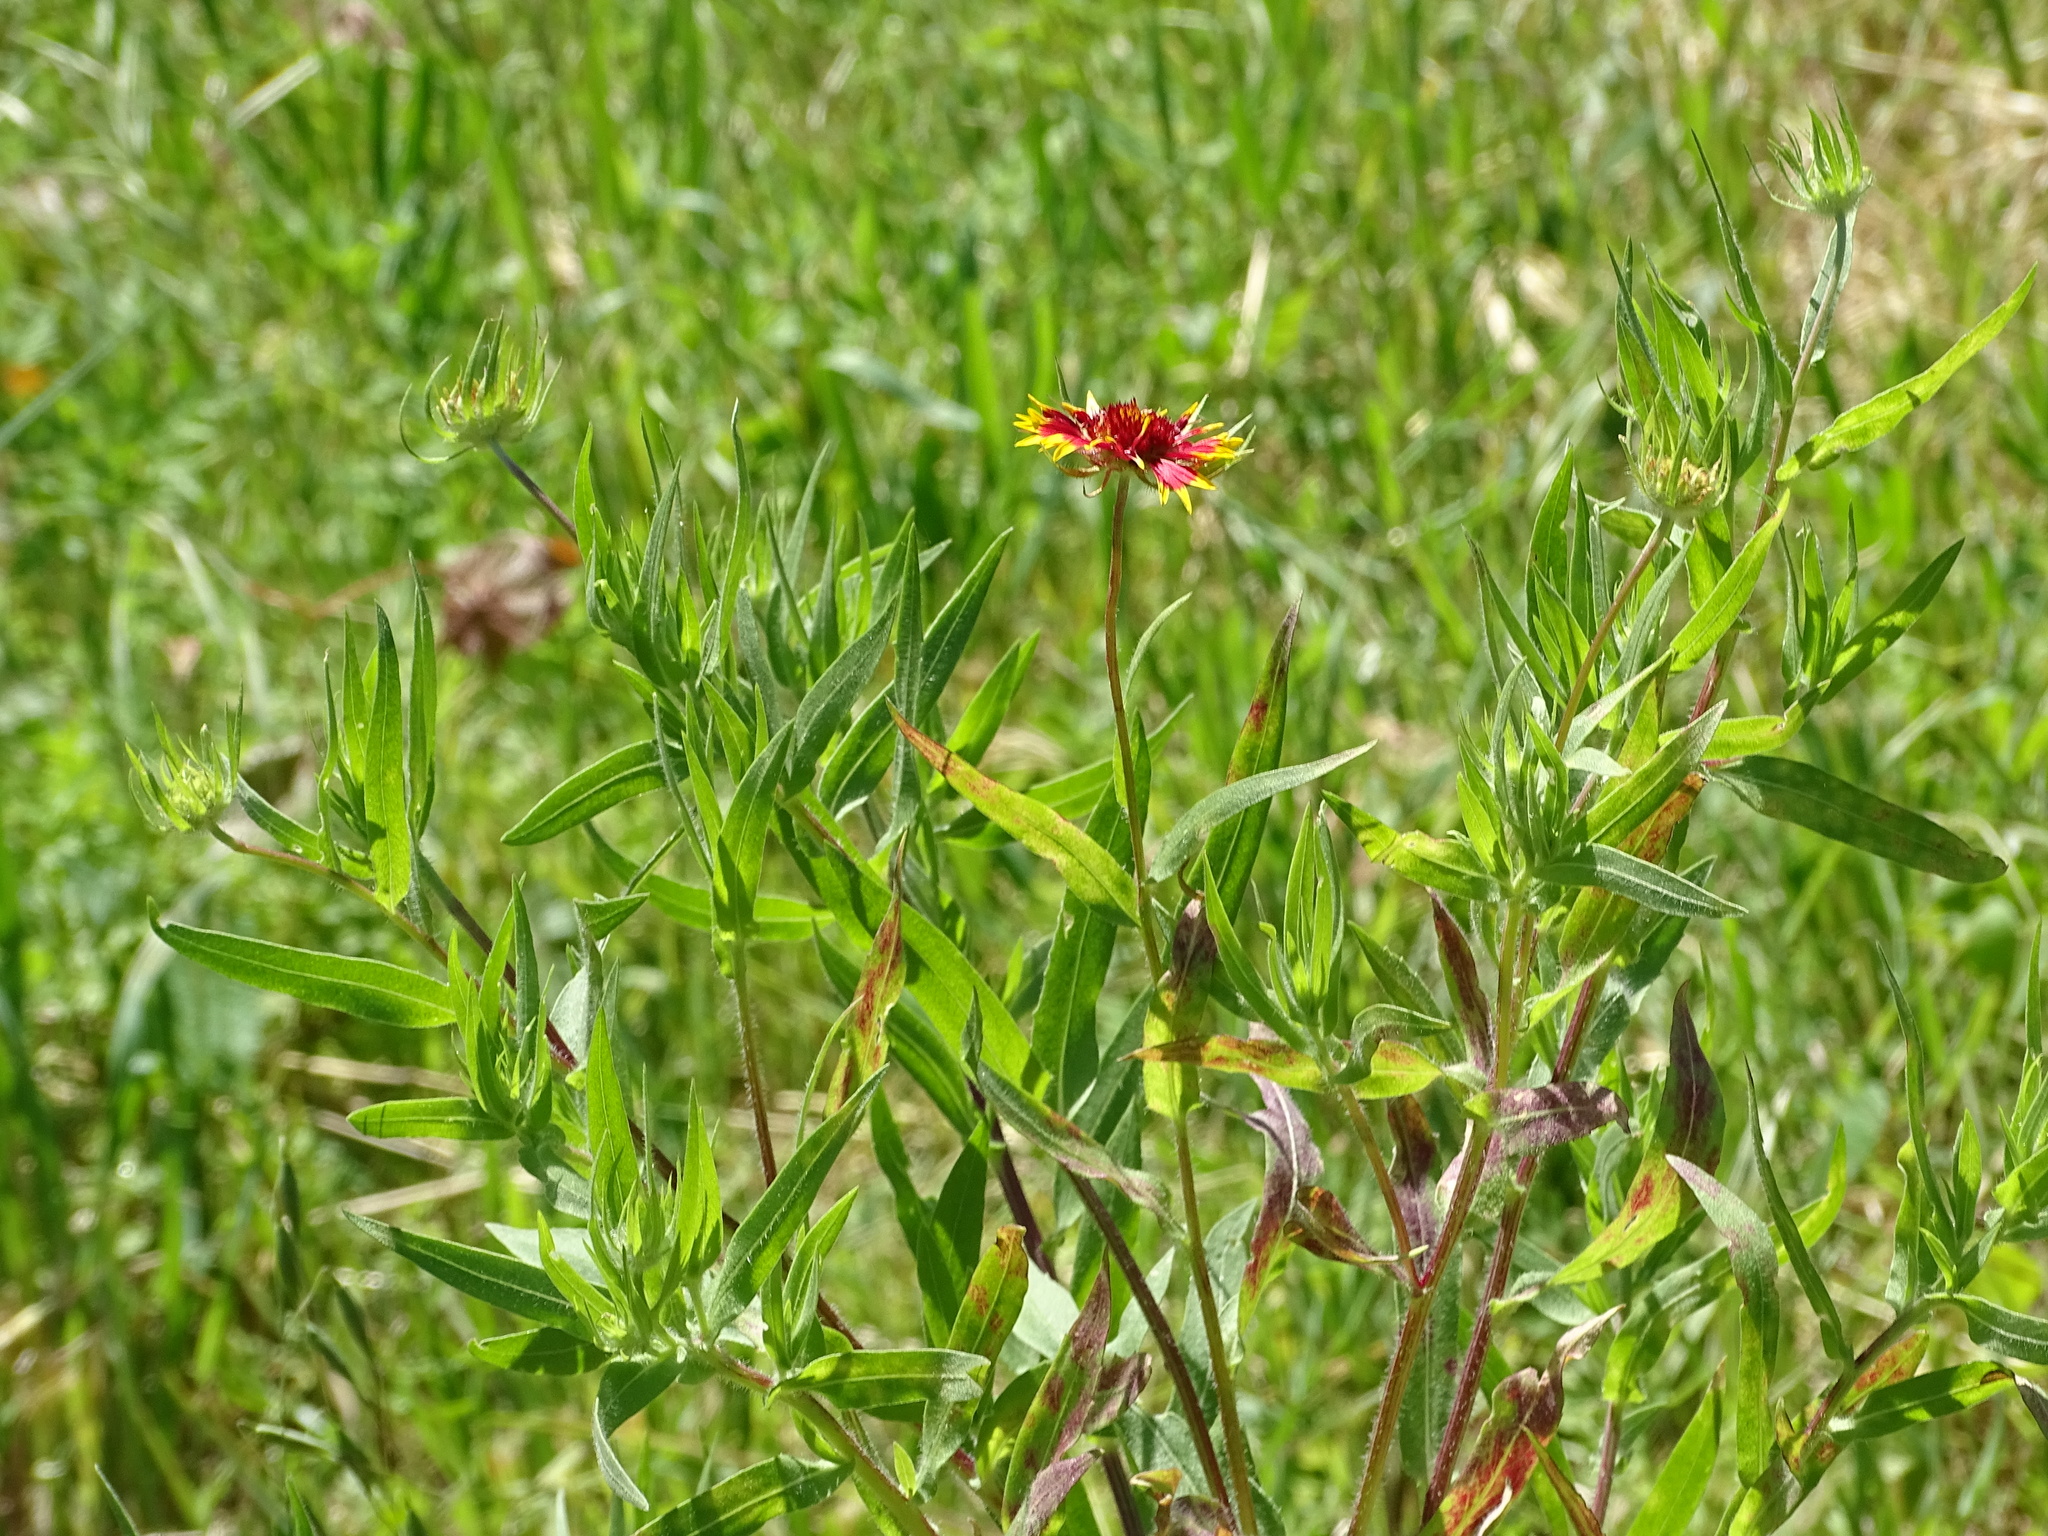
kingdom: Plantae
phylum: Tracheophyta
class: Magnoliopsida
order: Asterales
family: Asteraceae
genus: Gaillardia
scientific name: Gaillardia pulchella
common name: Firewheel
